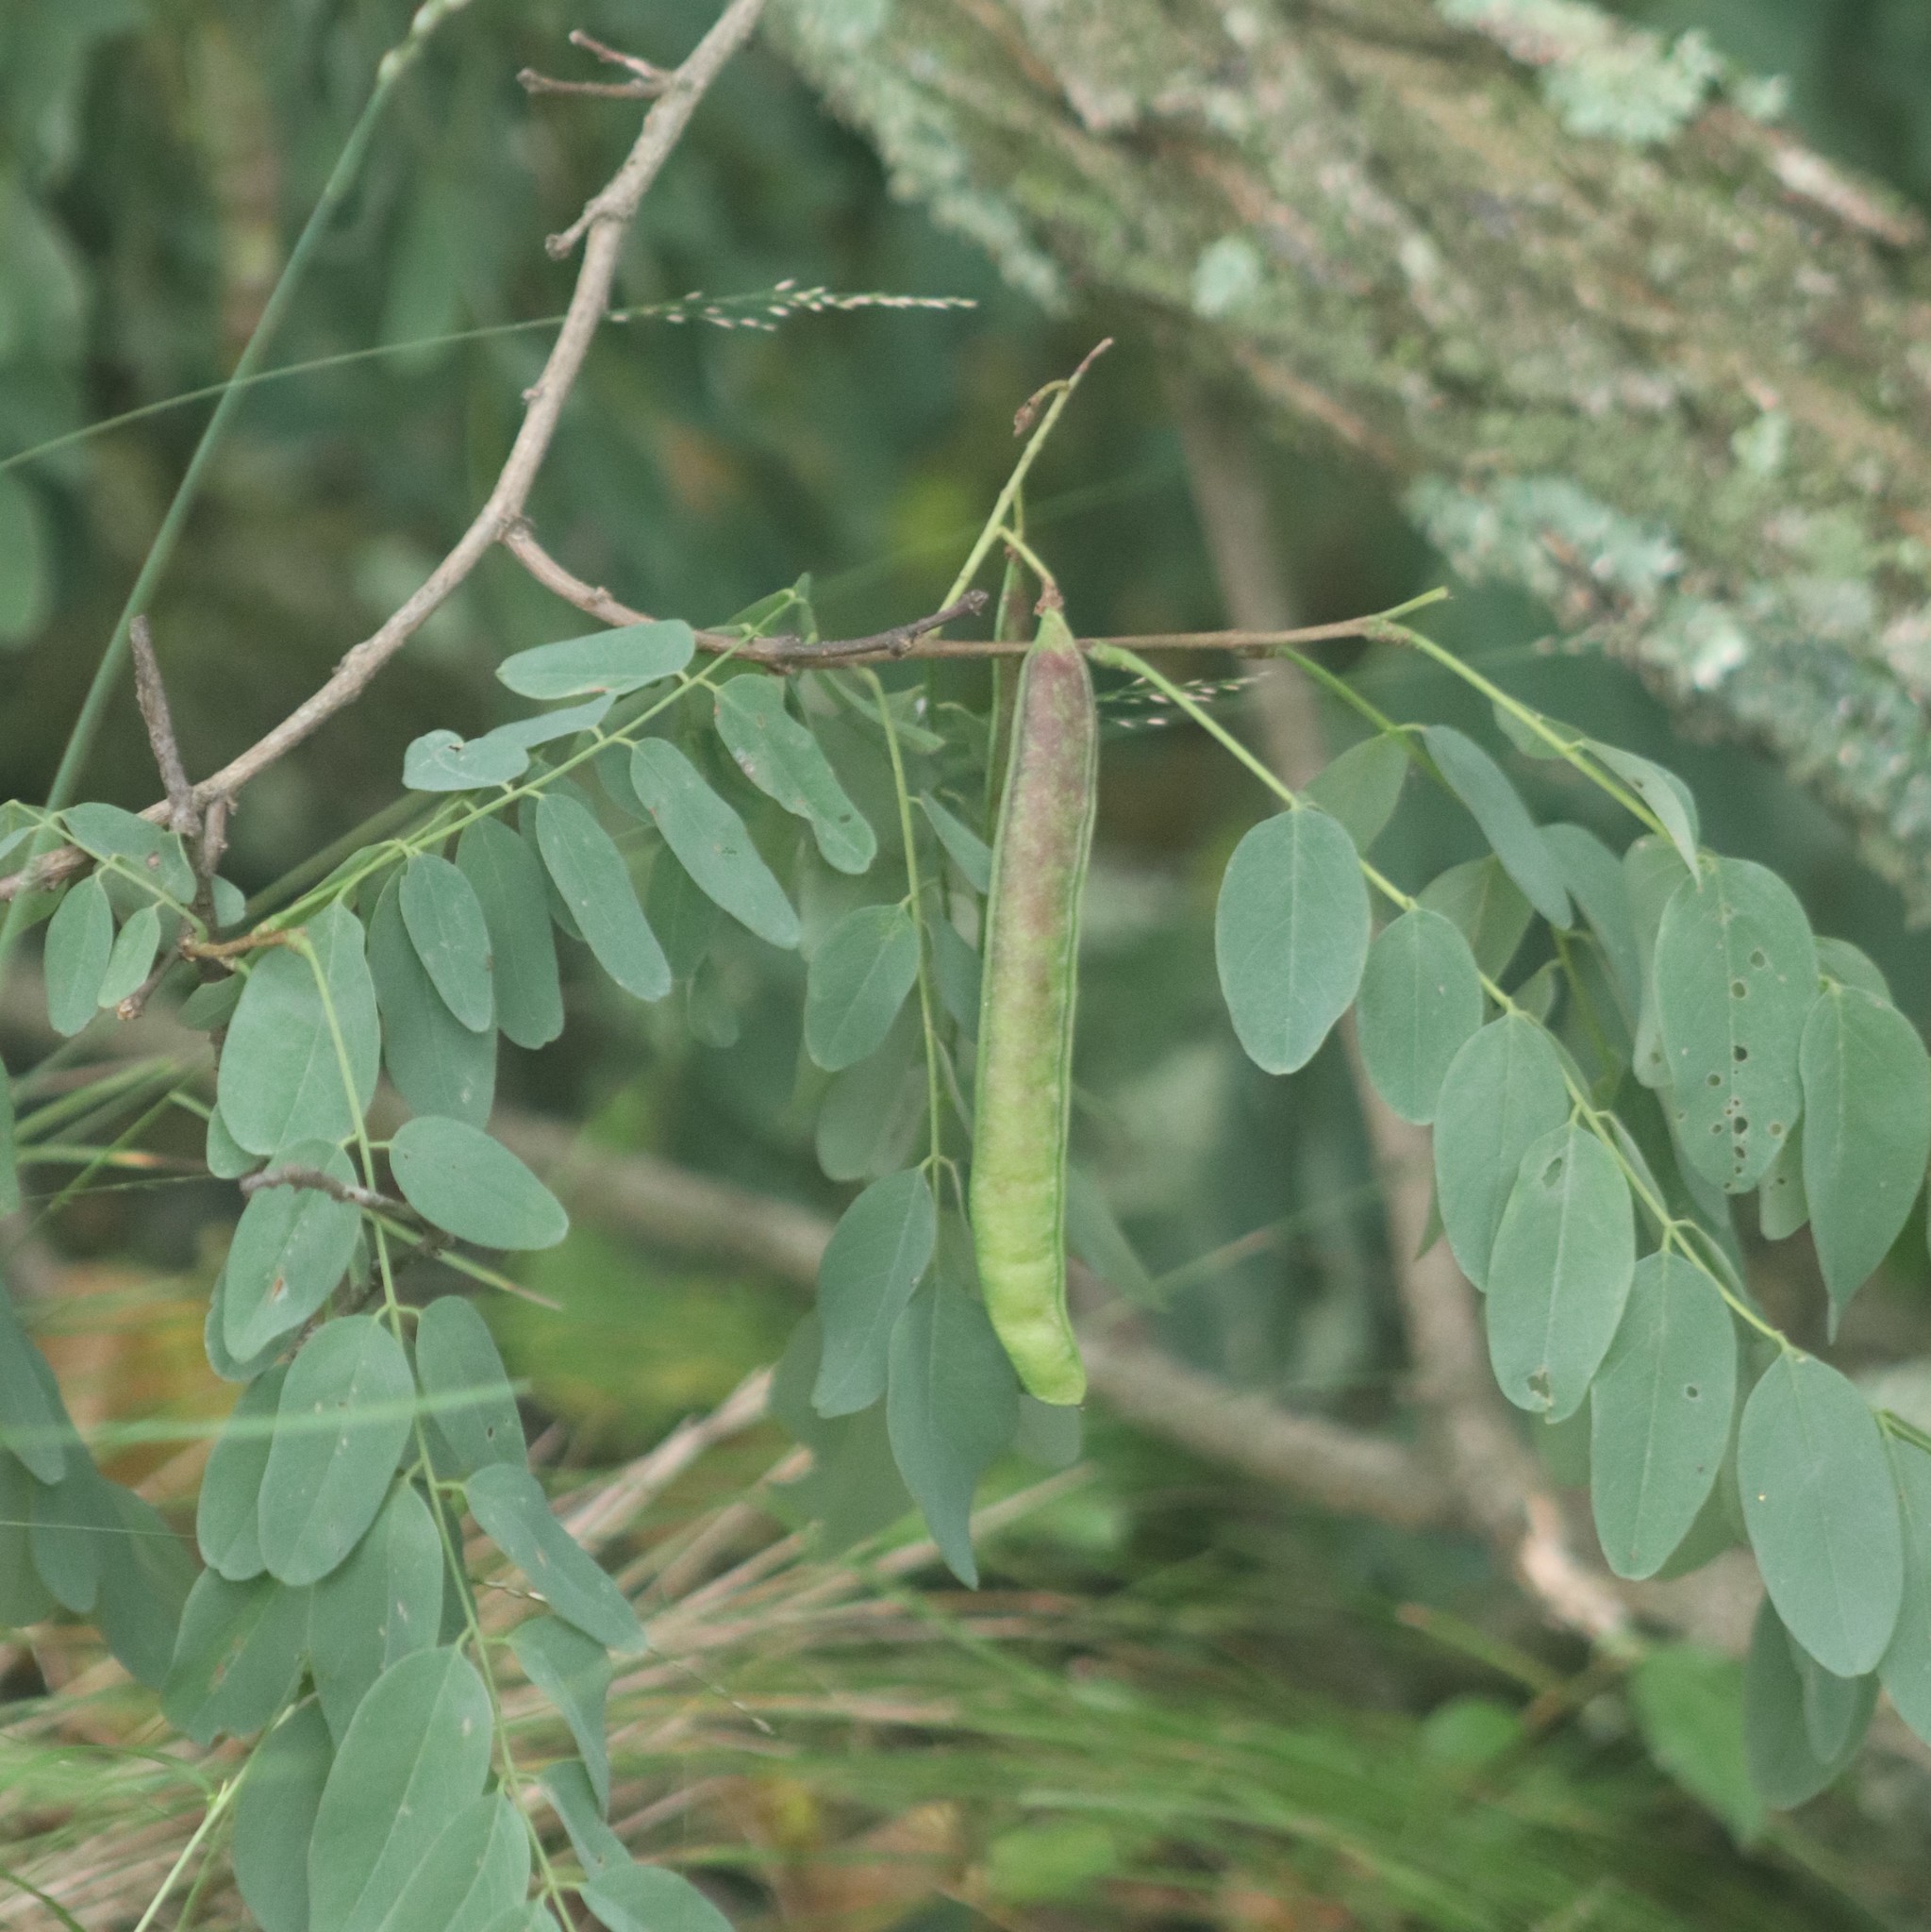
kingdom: Plantae
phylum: Tracheophyta
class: Magnoliopsida
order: Fabales
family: Fabaceae
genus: Robinia
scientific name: Robinia pseudoacacia
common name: Black locust
